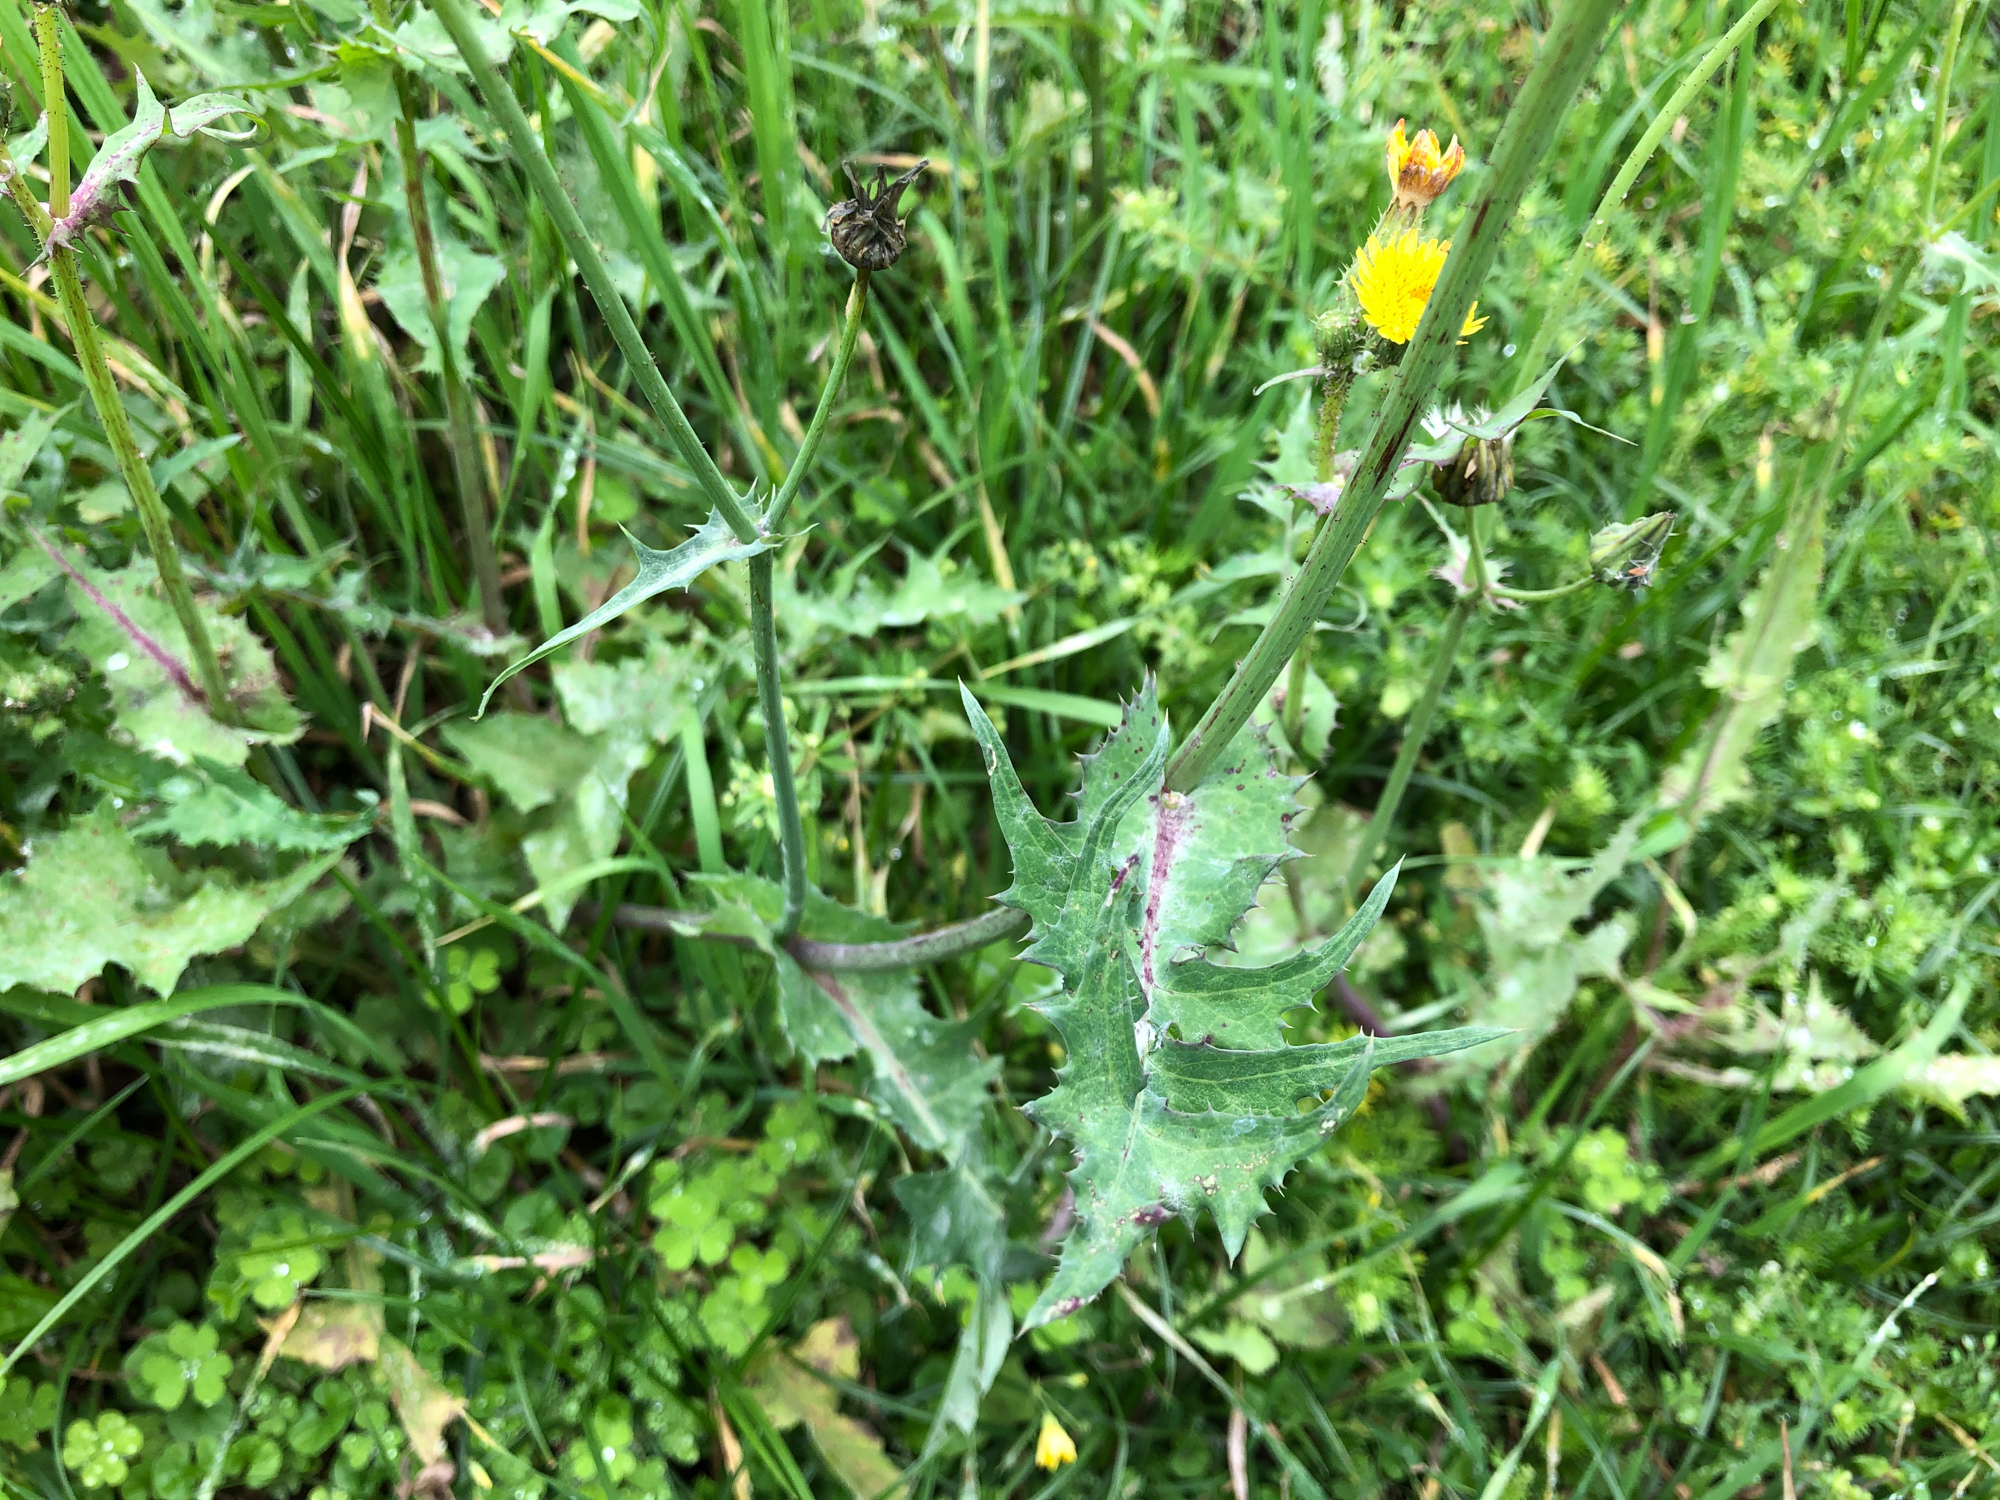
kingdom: Plantae
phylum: Tracheophyta
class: Magnoliopsida
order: Asterales
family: Asteraceae
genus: Sonchus
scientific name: Sonchus oleraceus
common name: Common sowthistle
